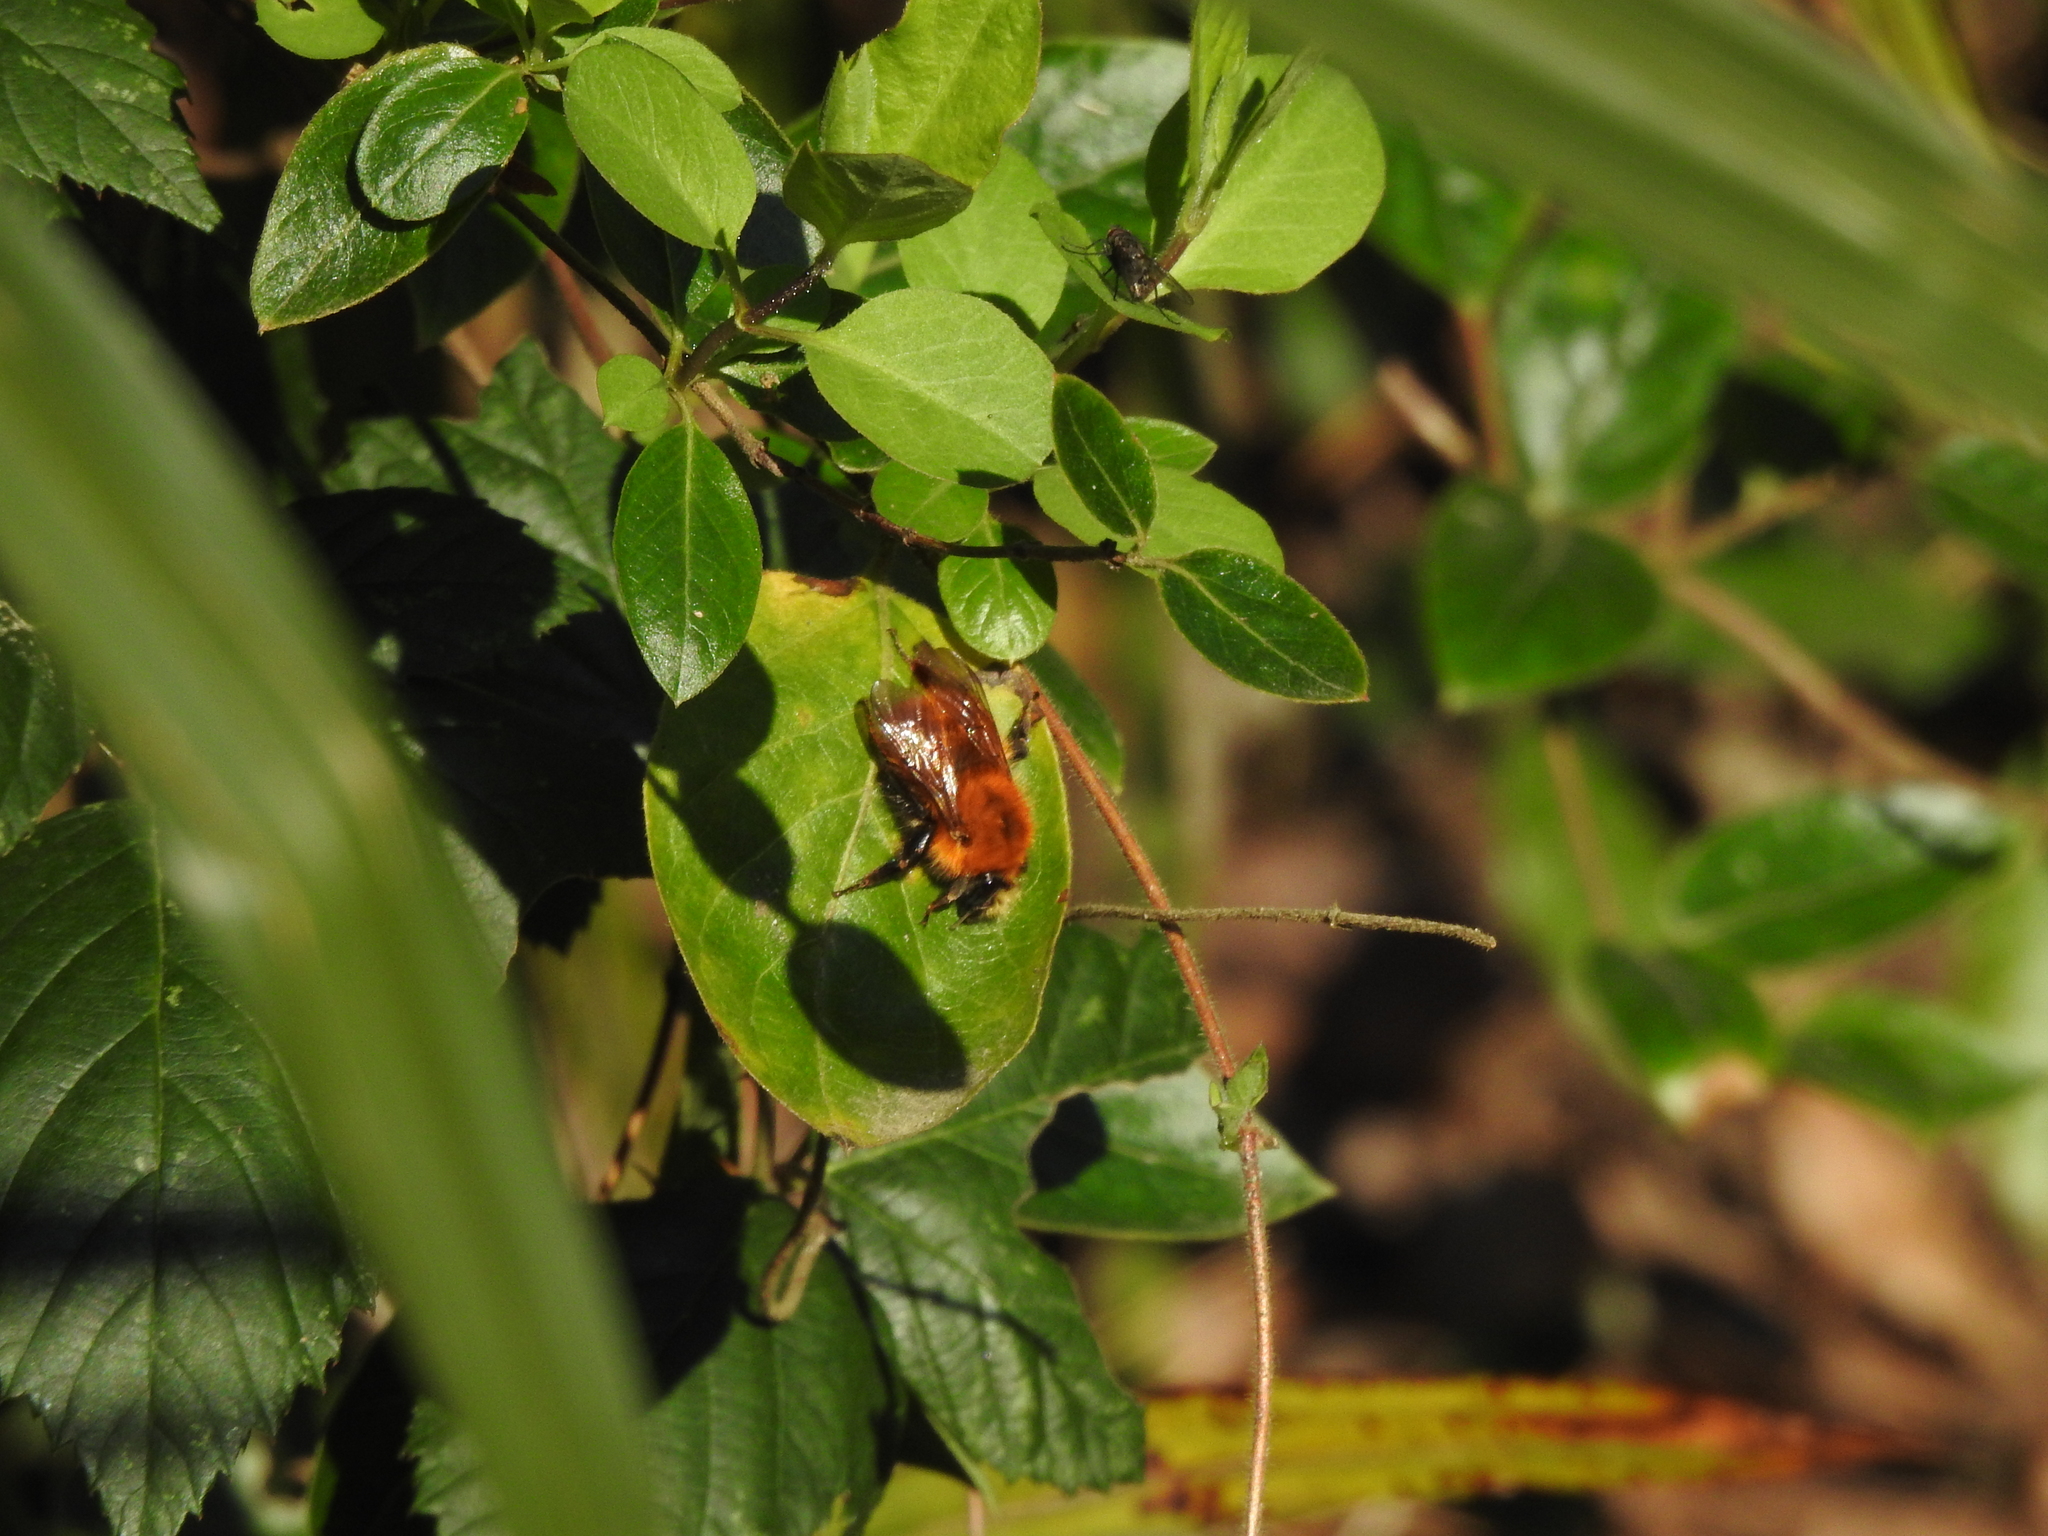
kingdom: Animalia
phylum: Arthropoda
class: Insecta
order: Hymenoptera
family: Apidae
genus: Bombus
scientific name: Bombus pascuorum
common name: Common carder bee
